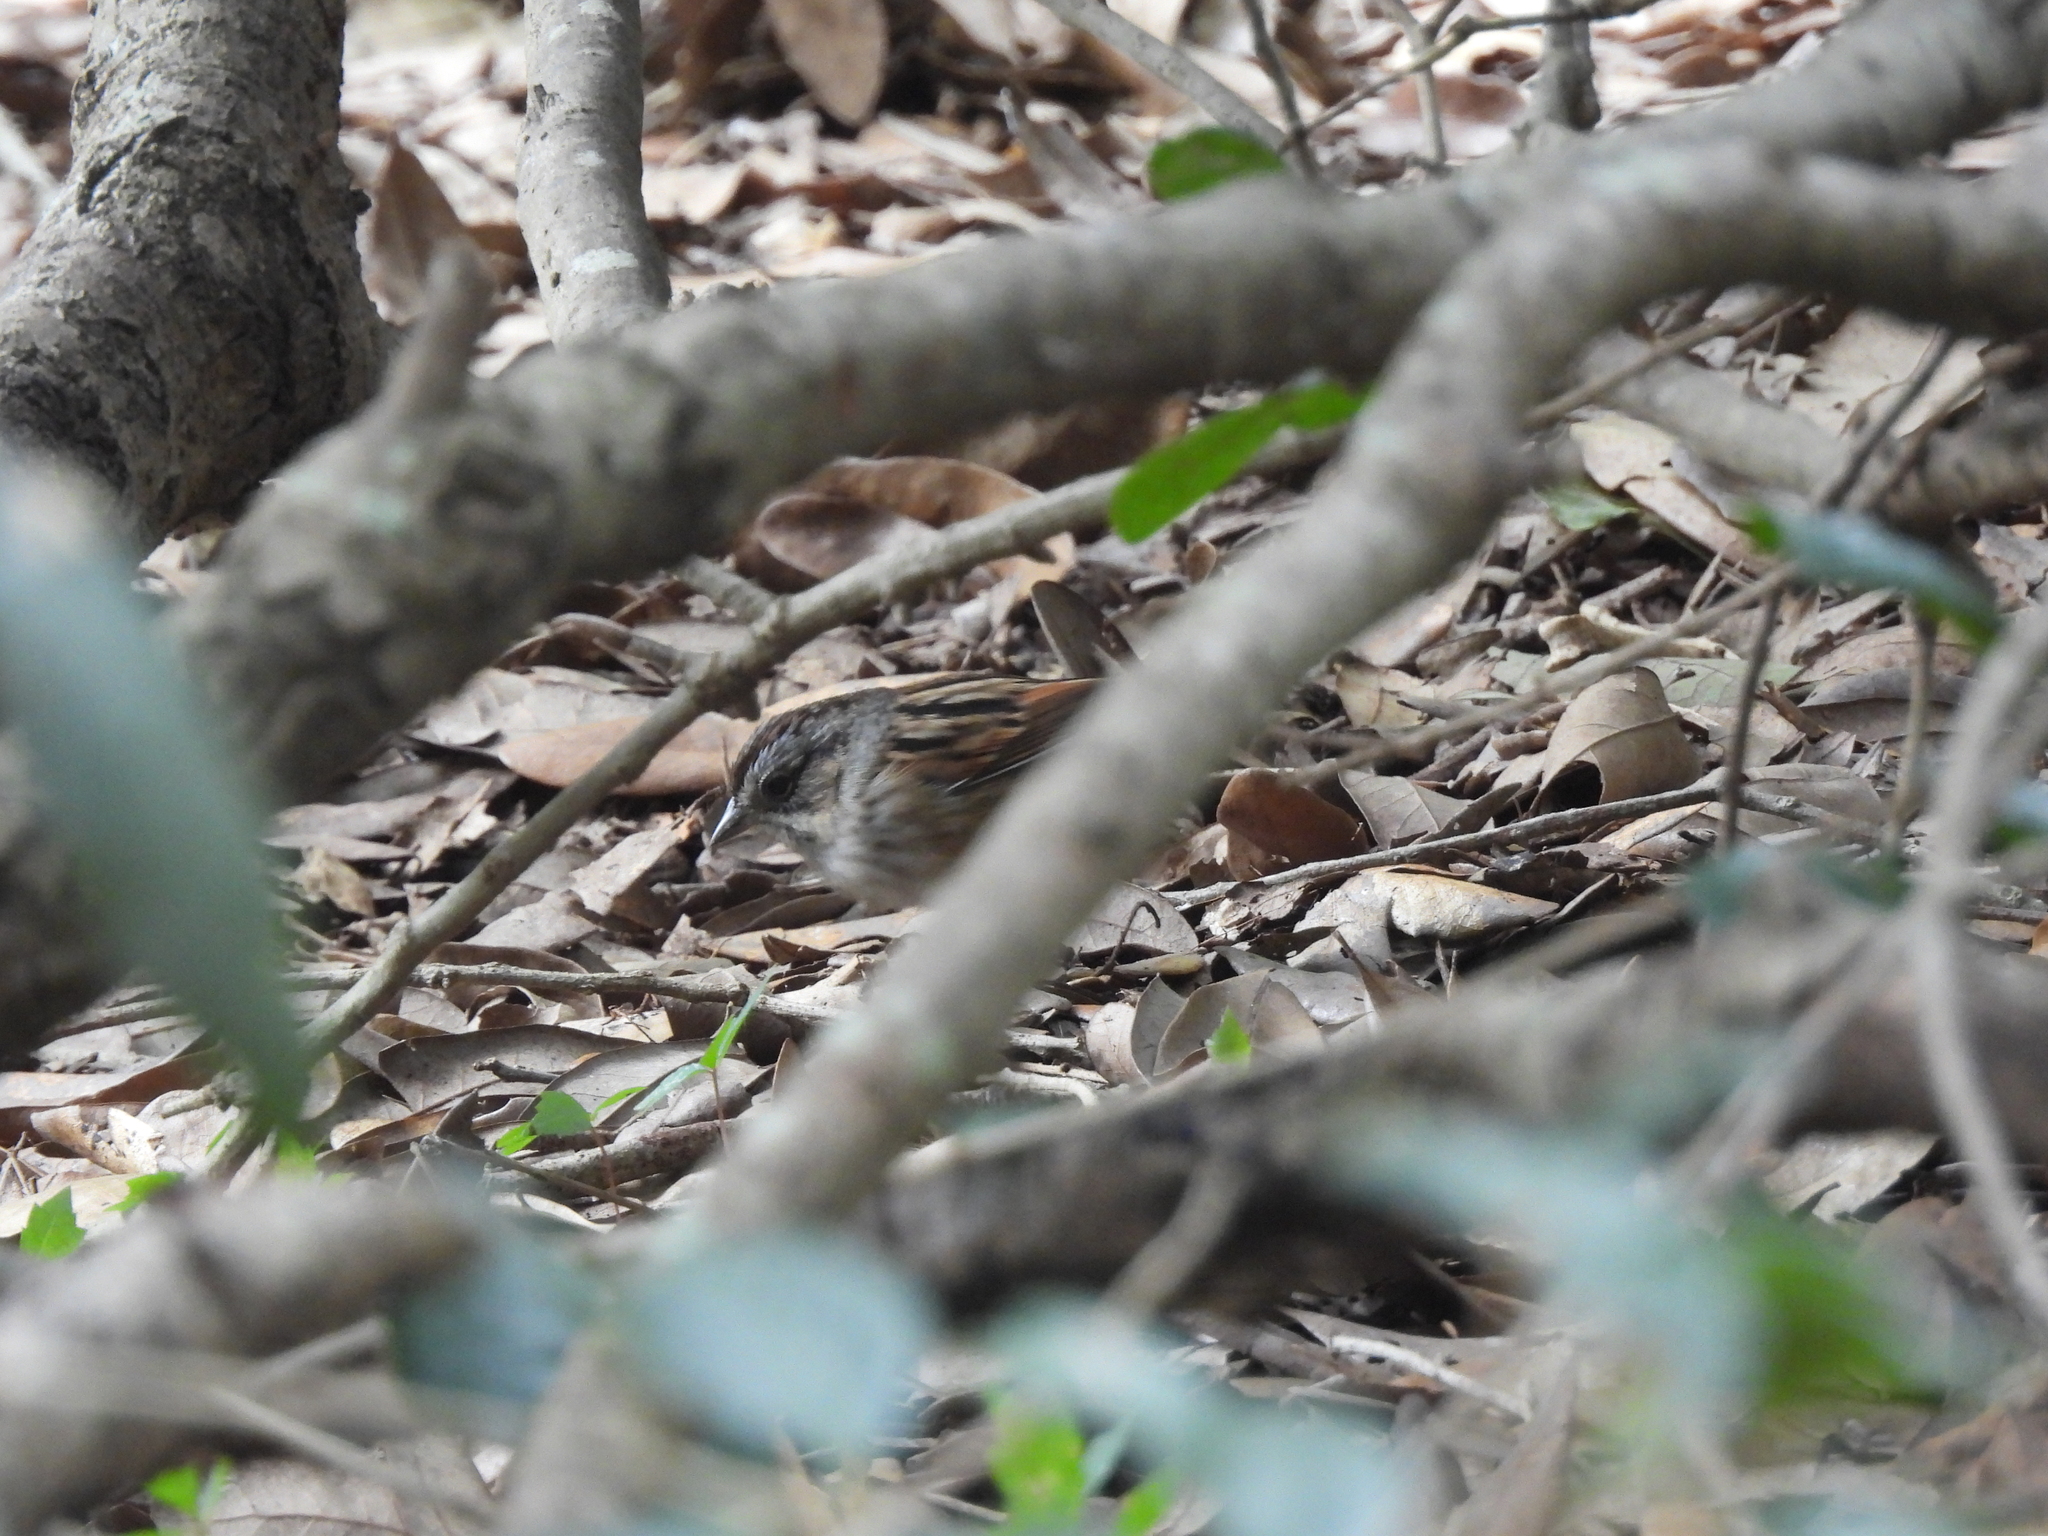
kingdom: Animalia
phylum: Chordata
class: Aves
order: Passeriformes
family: Passerellidae
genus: Melospiza
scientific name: Melospiza georgiana
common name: Swamp sparrow
